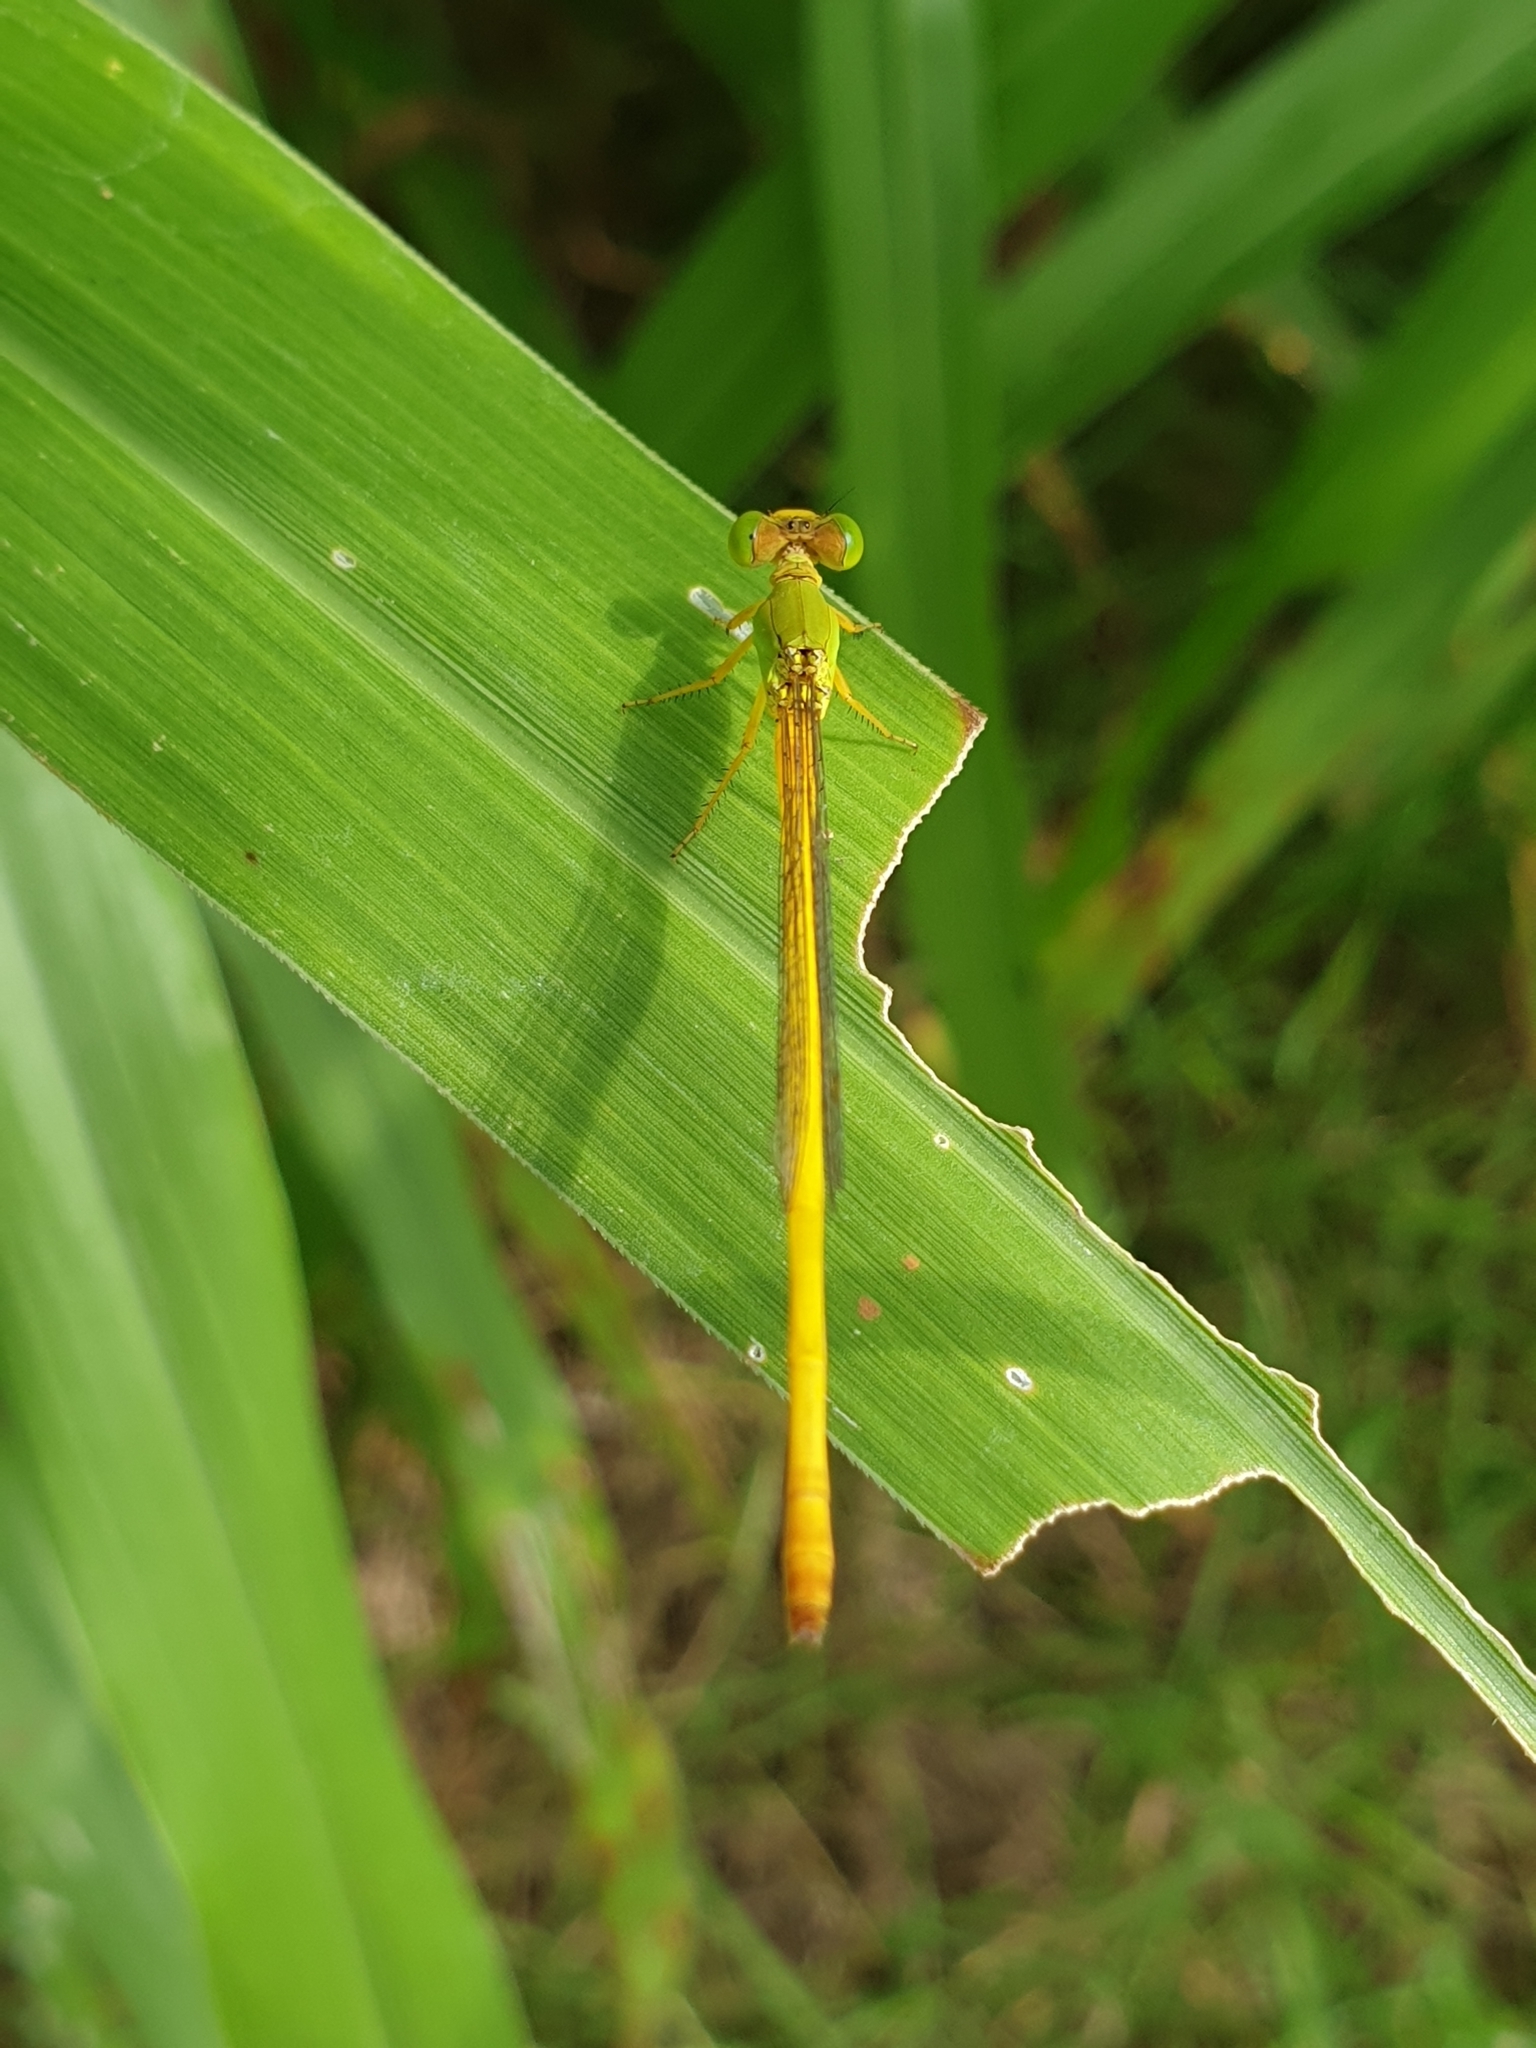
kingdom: Animalia
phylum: Arthropoda
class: Insecta
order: Odonata
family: Coenagrionidae
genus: Ceriagrion
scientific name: Ceriagrion coromandelianum
